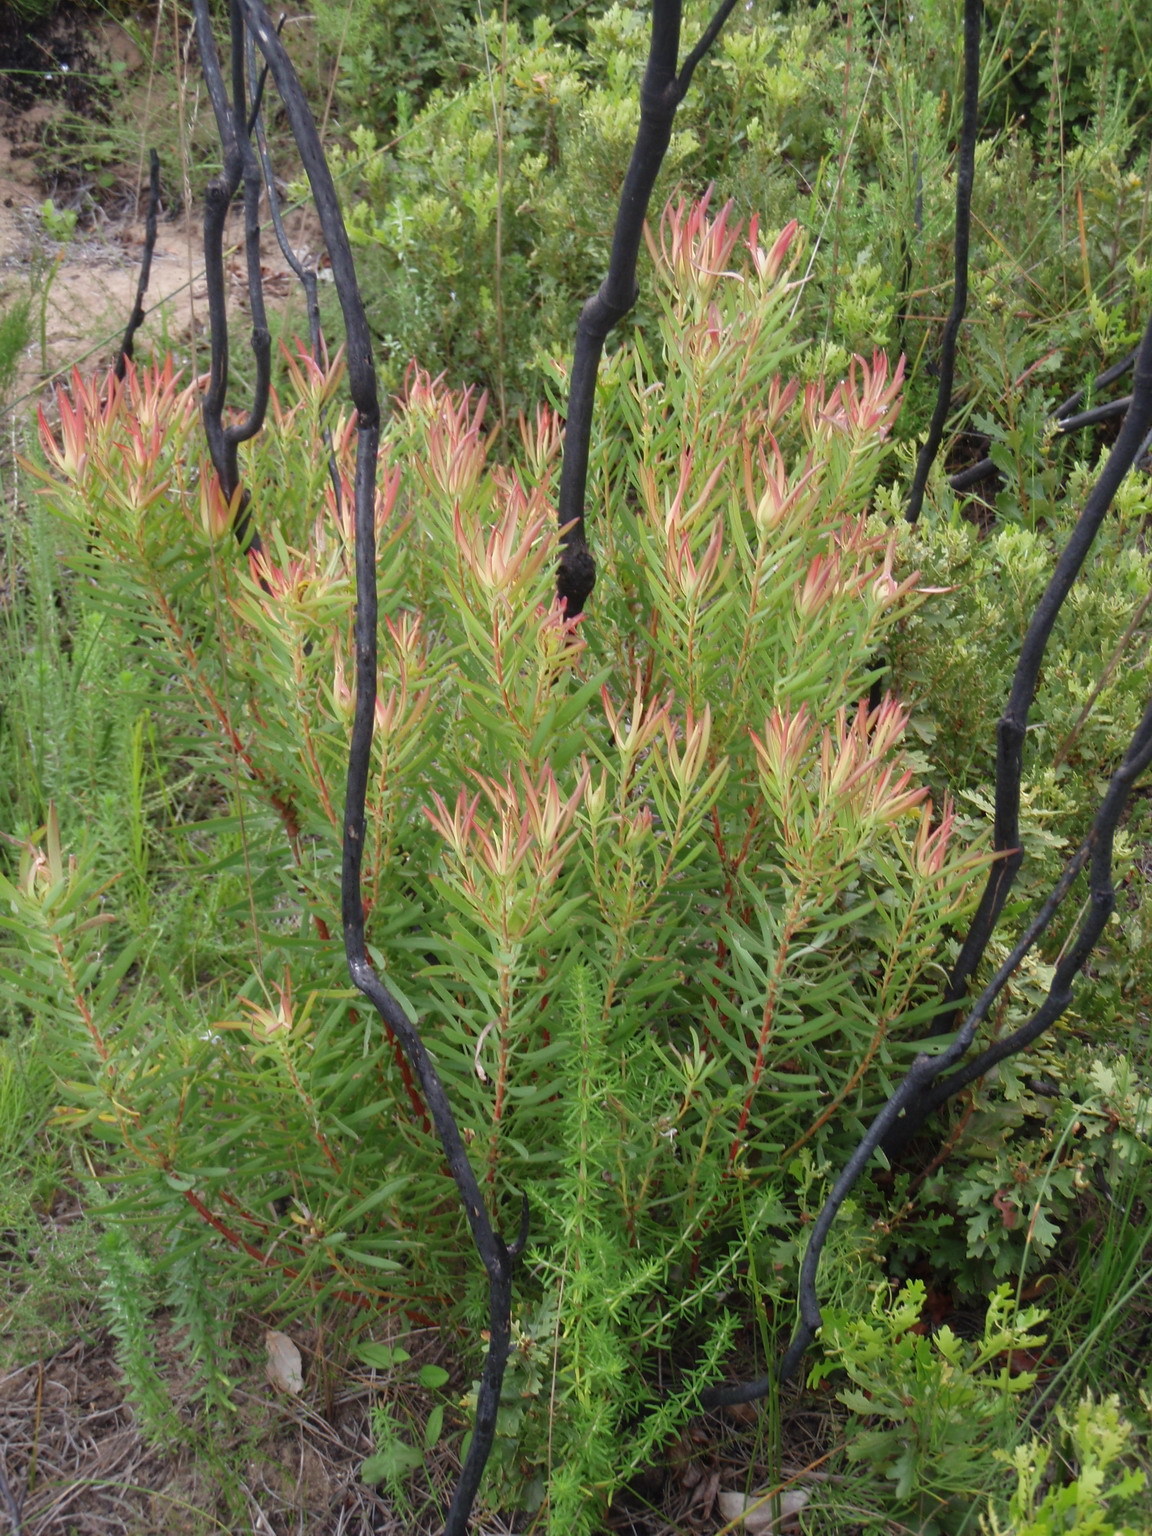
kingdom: Plantae
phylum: Tracheophyta
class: Magnoliopsida
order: Proteales
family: Proteaceae
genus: Leucadendron
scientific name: Leucadendron salignum
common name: Common sunshine conebush
